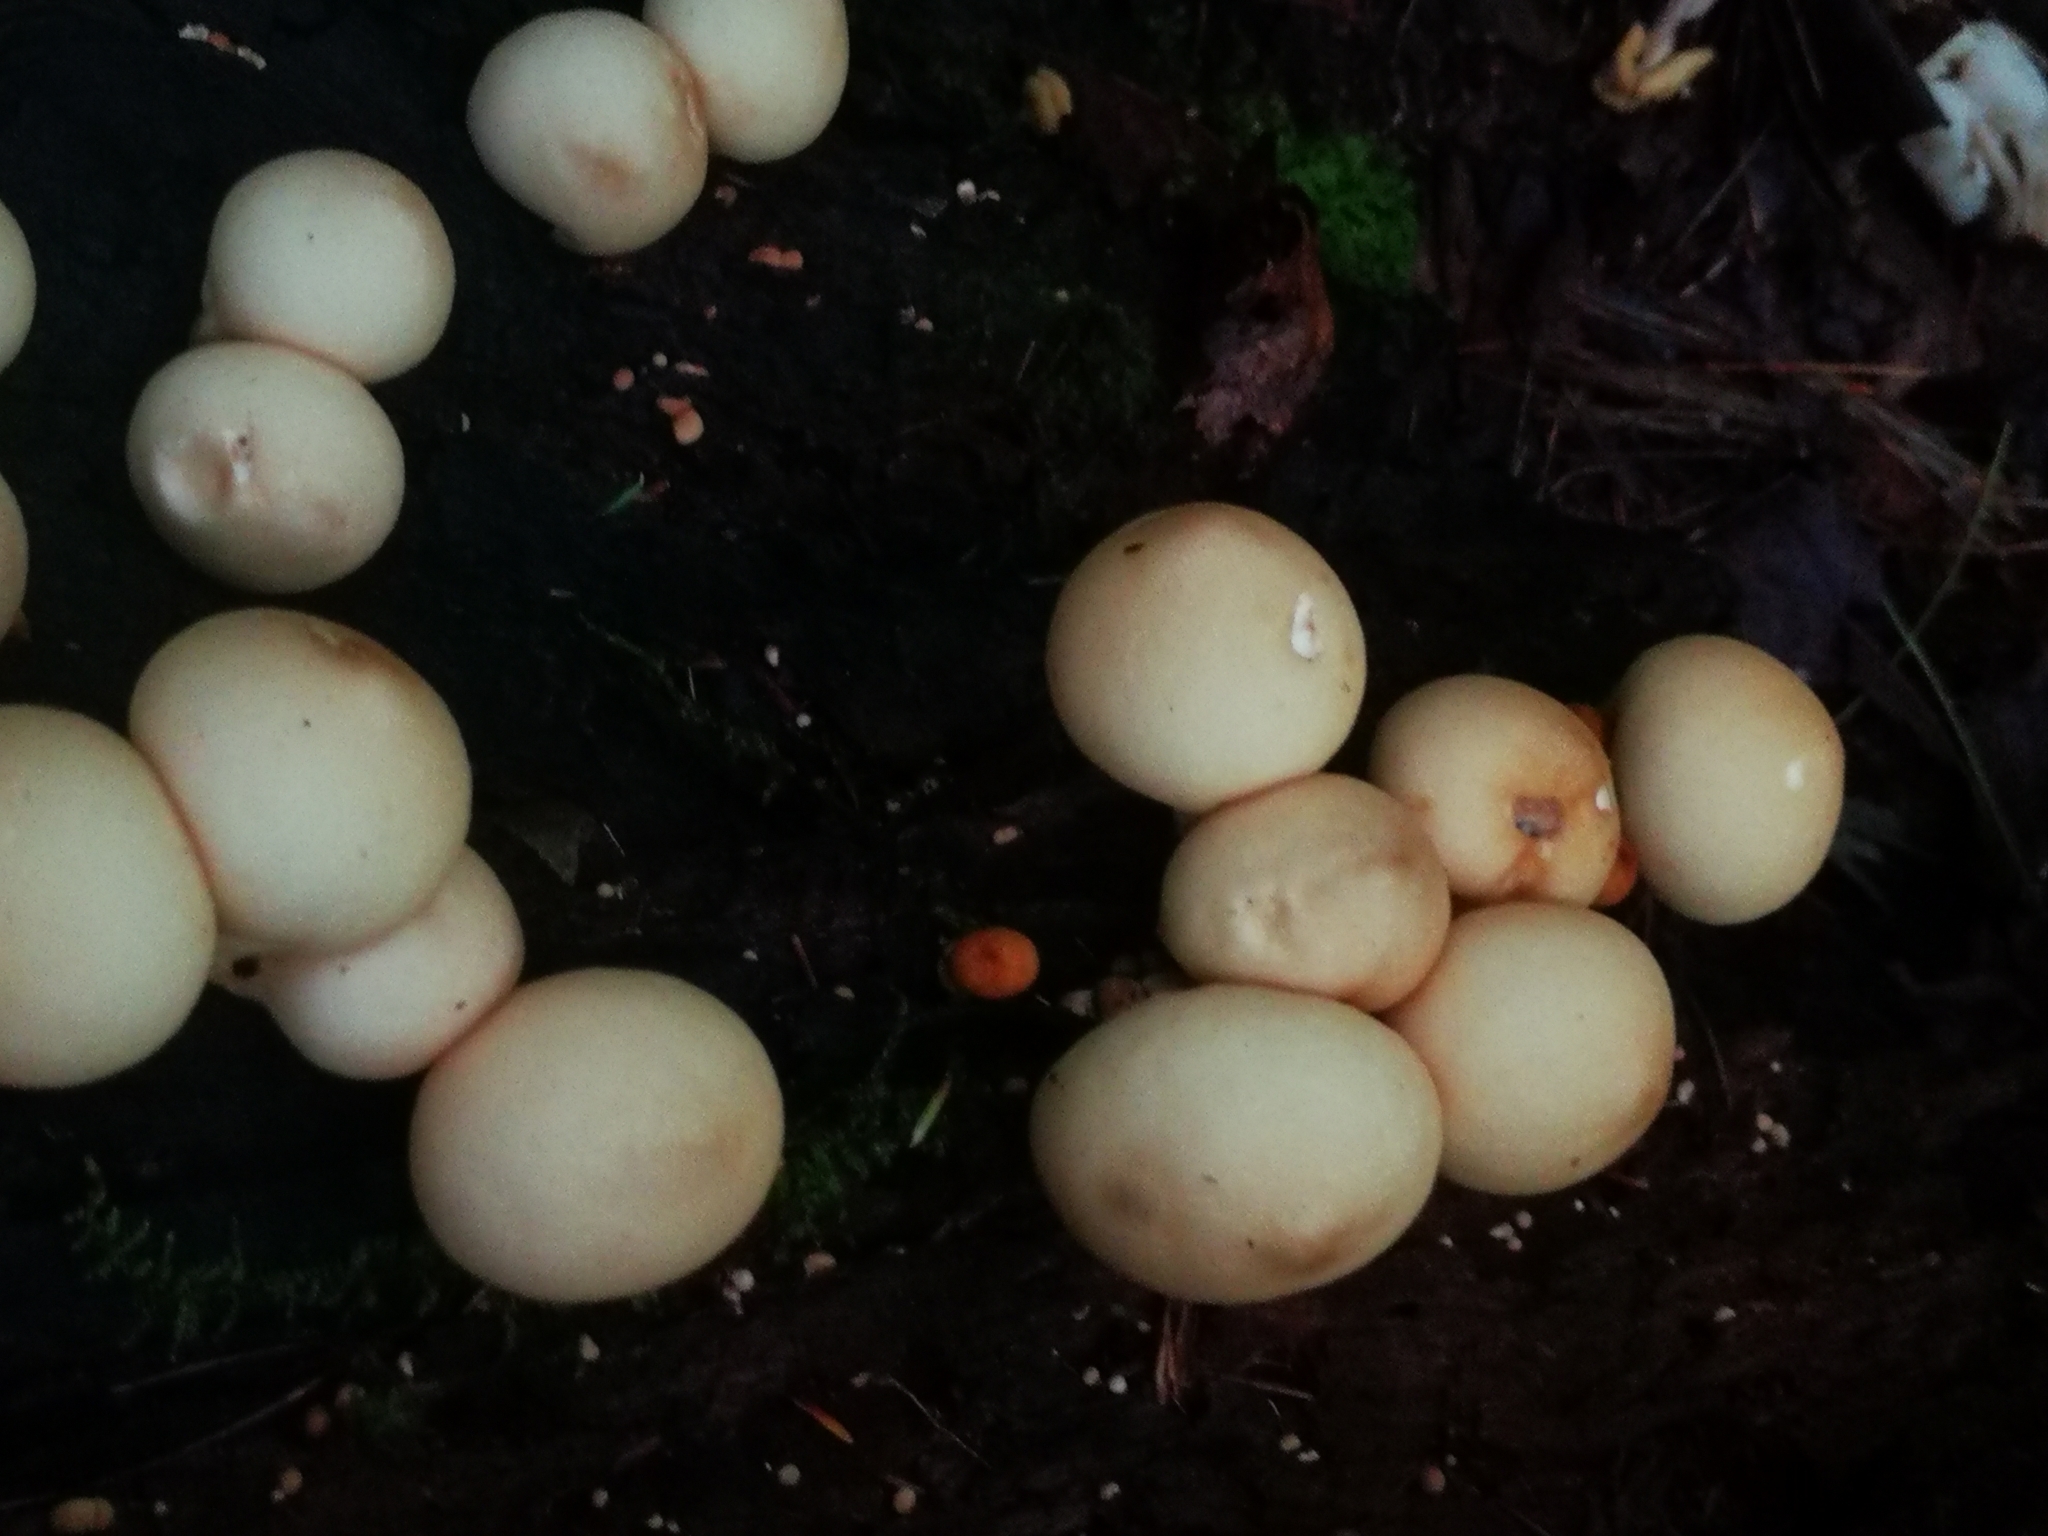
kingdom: Fungi
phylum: Basidiomycota
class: Agaricomycetes
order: Agaricales
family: Lycoperdaceae
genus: Apioperdon
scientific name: Apioperdon pyriforme
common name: Pear-shaped puffball
